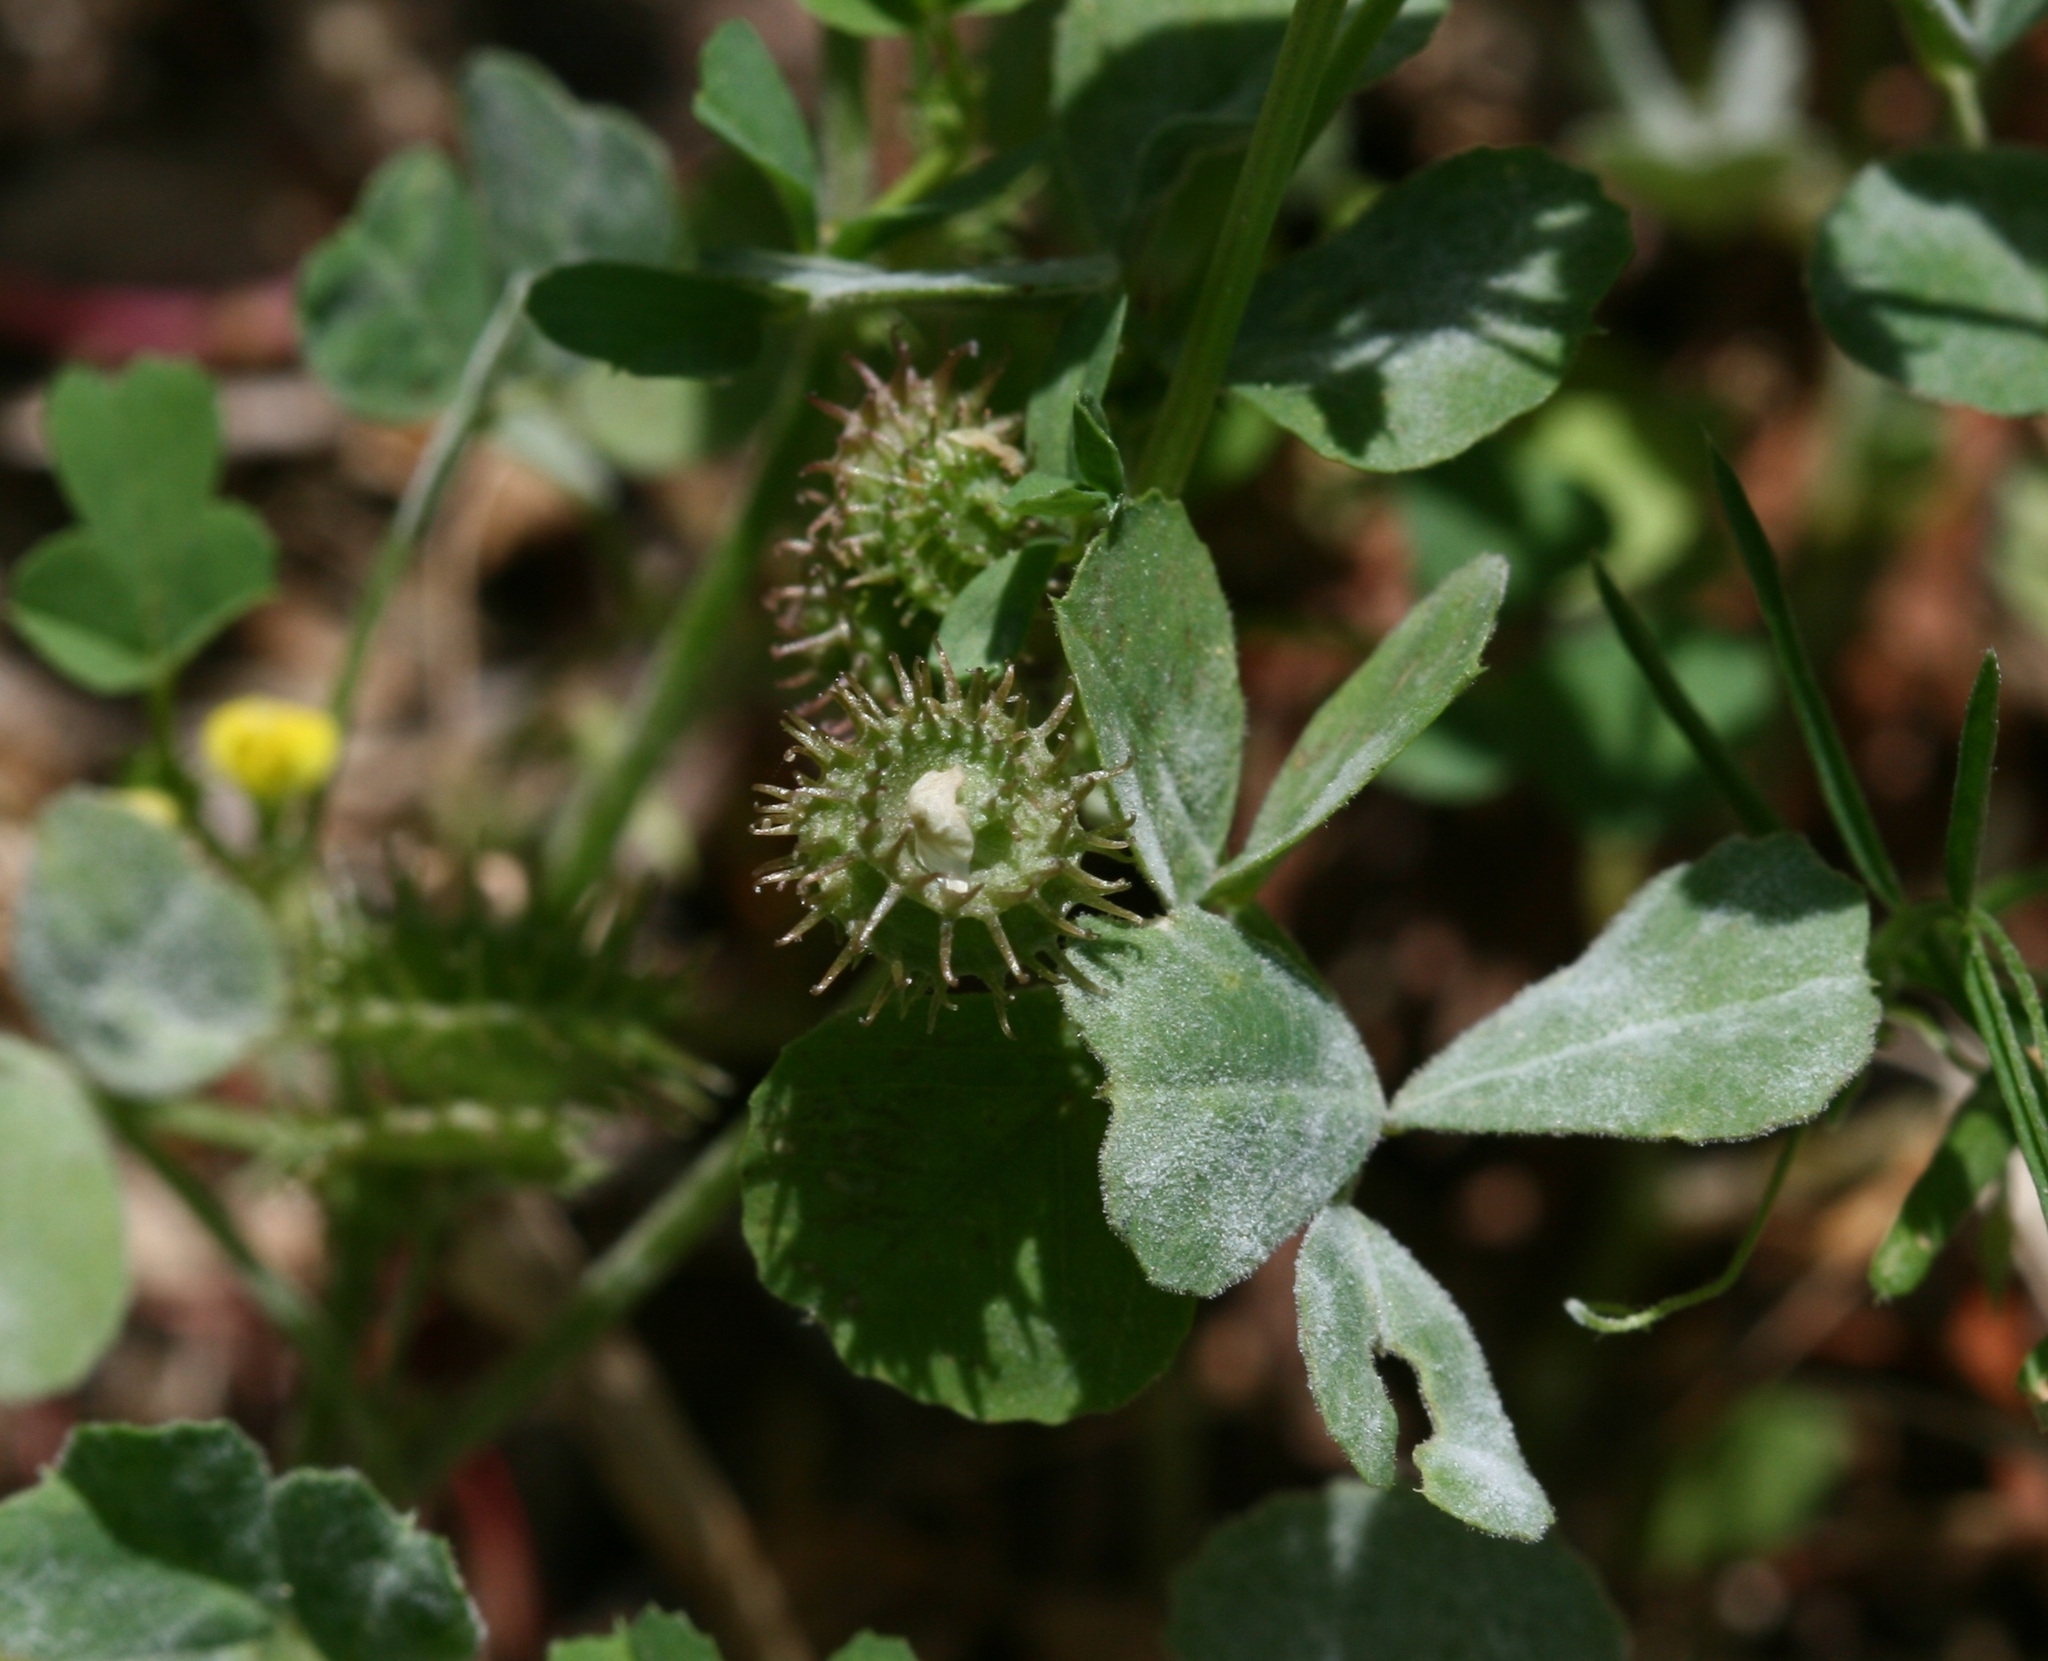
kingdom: Plantae
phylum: Tracheophyta
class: Magnoliopsida
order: Fabales
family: Fabaceae
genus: Medicago
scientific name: Medicago polymorpha
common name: Burclover
